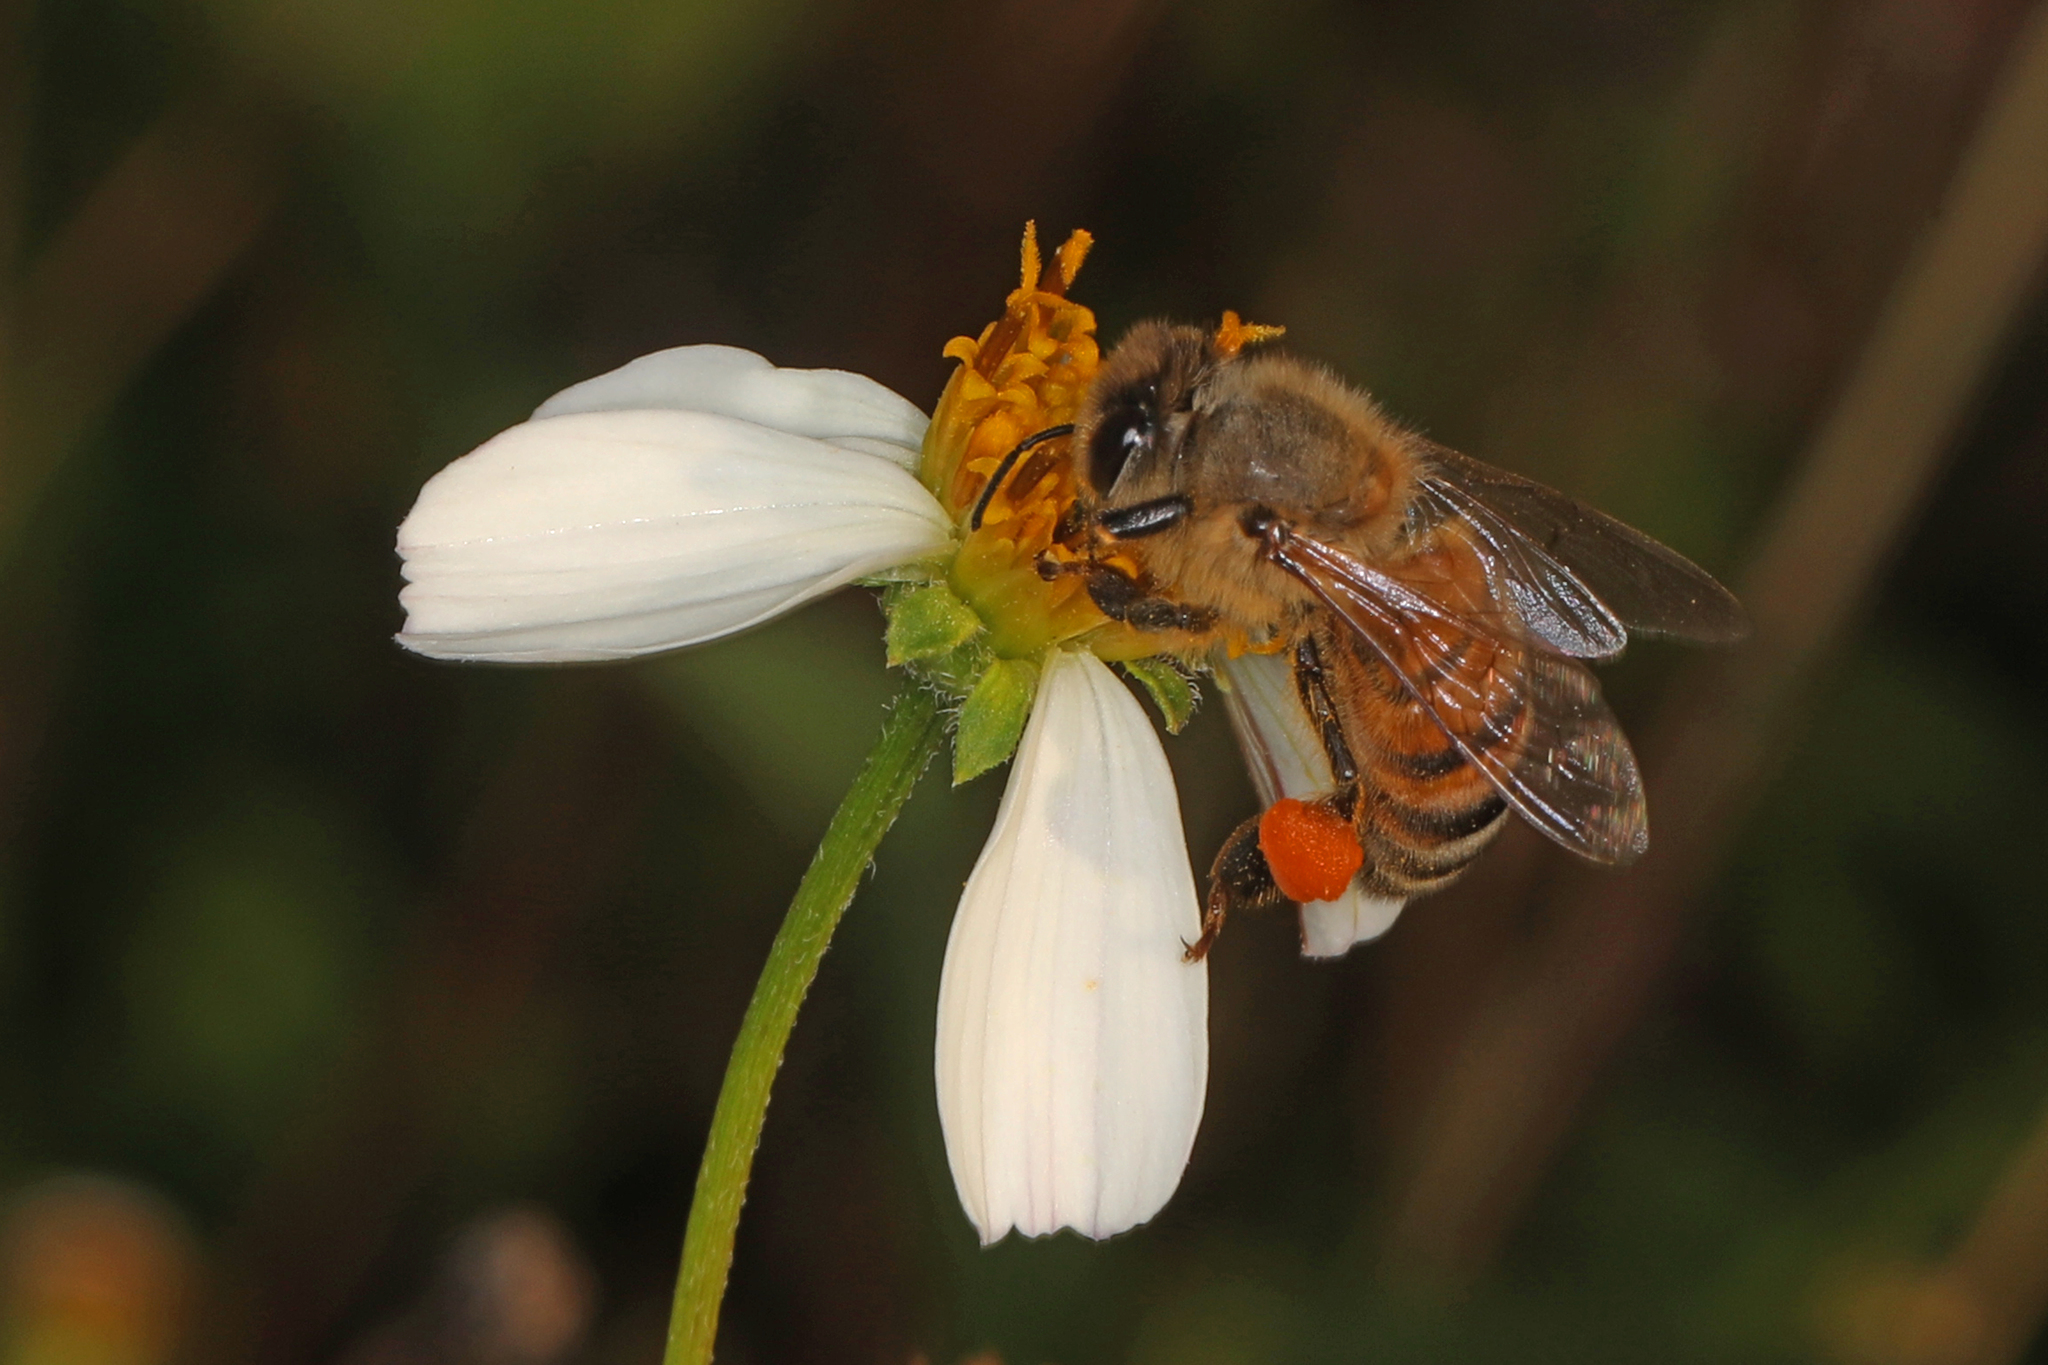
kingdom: Animalia
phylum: Arthropoda
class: Insecta
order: Hymenoptera
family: Apidae
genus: Apis
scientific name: Apis mellifera
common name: Honey bee
